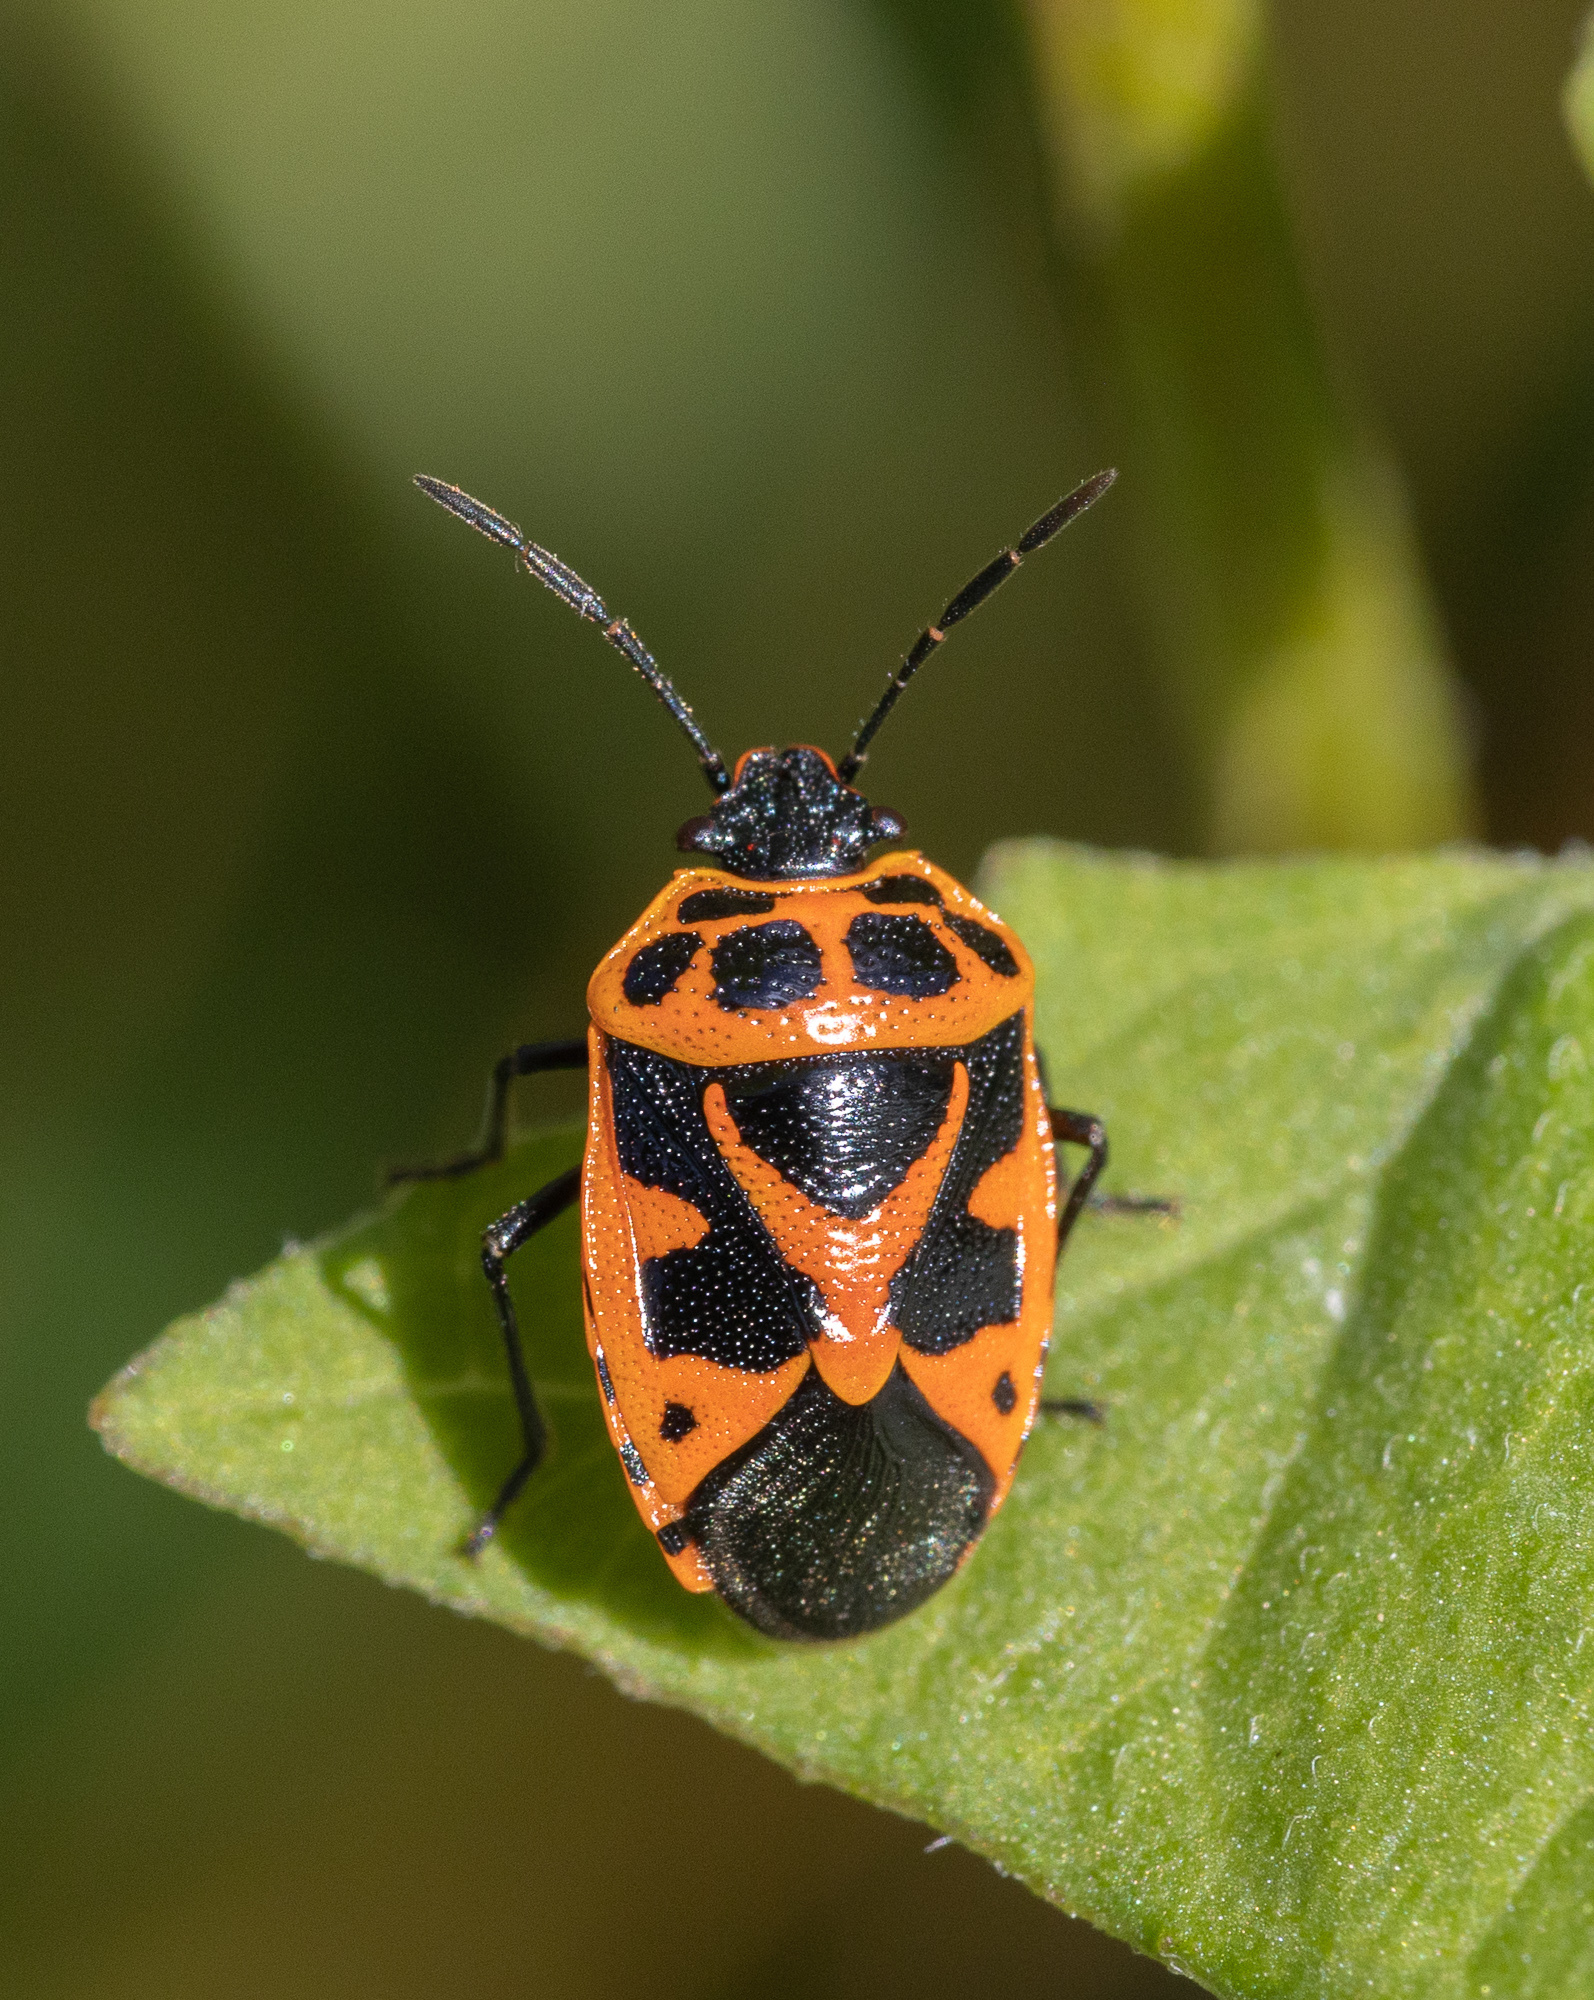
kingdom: Animalia
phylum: Arthropoda
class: Insecta
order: Hemiptera
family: Pentatomidae
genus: Eurydema
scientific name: Eurydema dominulus
